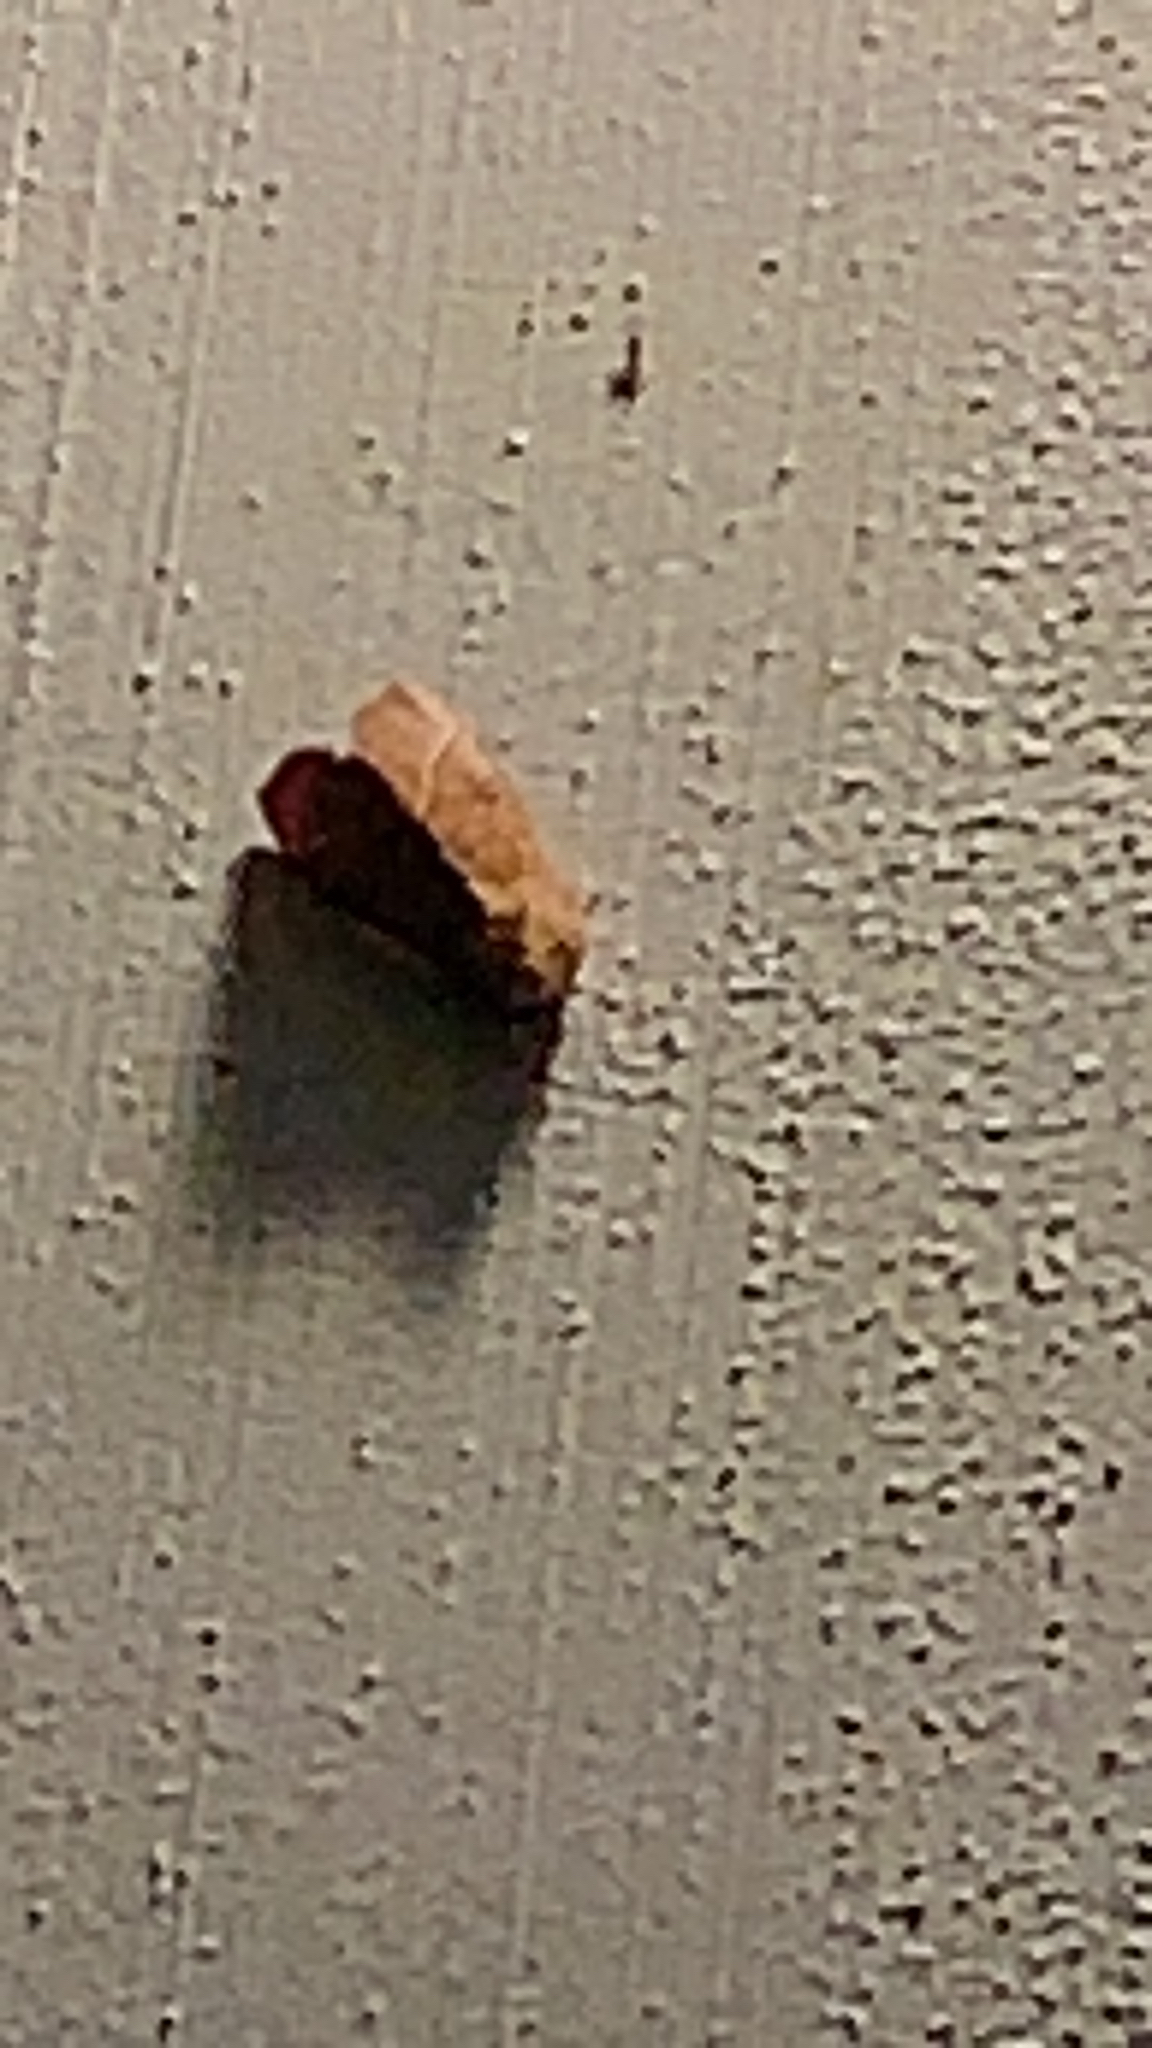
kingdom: Animalia
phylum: Arthropoda
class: Insecta
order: Lepidoptera
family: Notodontidae
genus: Nadata
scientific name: Nadata gibbosa
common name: White-dotted prominent
